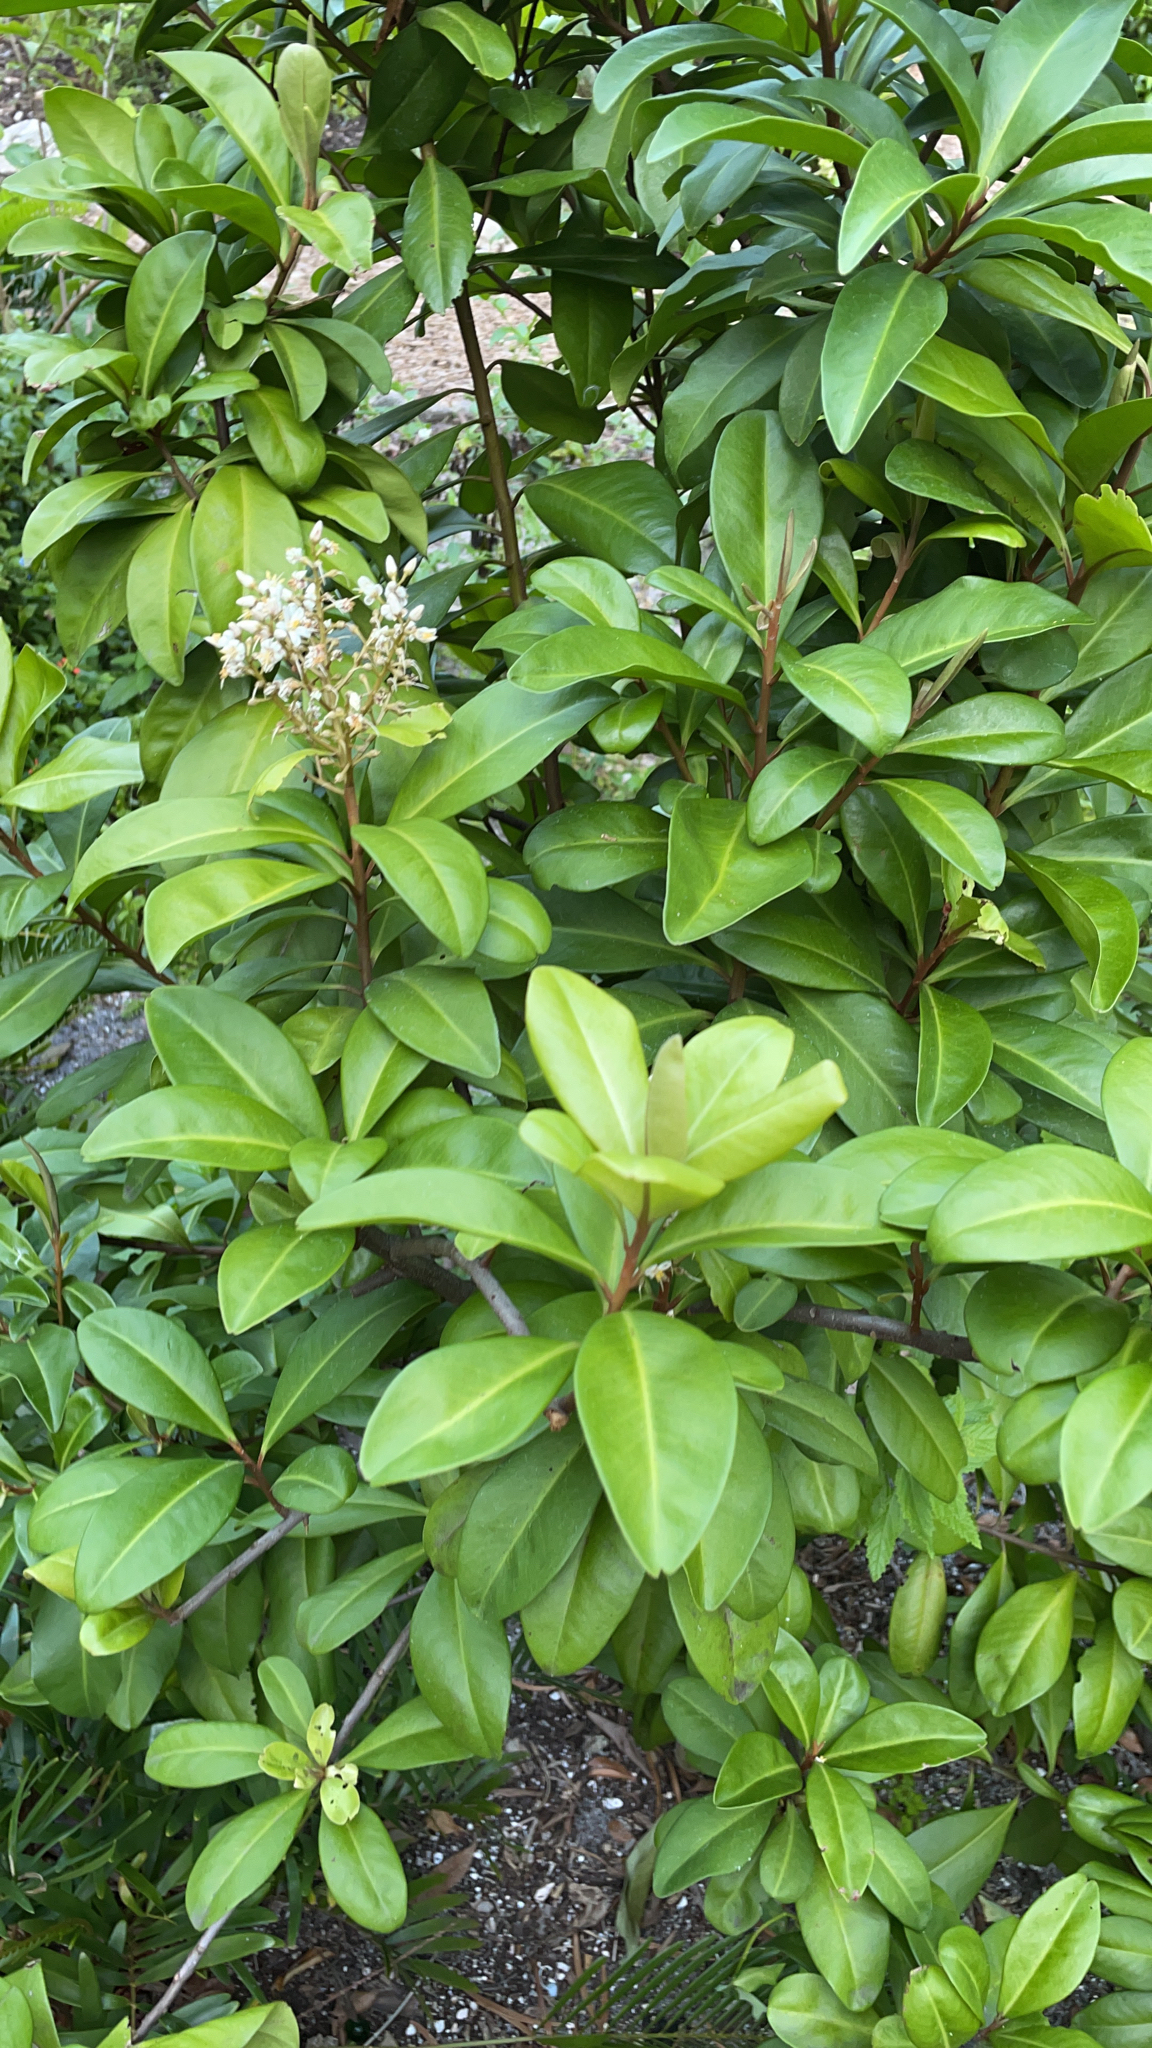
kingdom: Plantae
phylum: Tracheophyta
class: Magnoliopsida
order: Ericales
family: Primulaceae
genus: Ardisia
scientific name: Ardisia escallonioides
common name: Island marlberry
